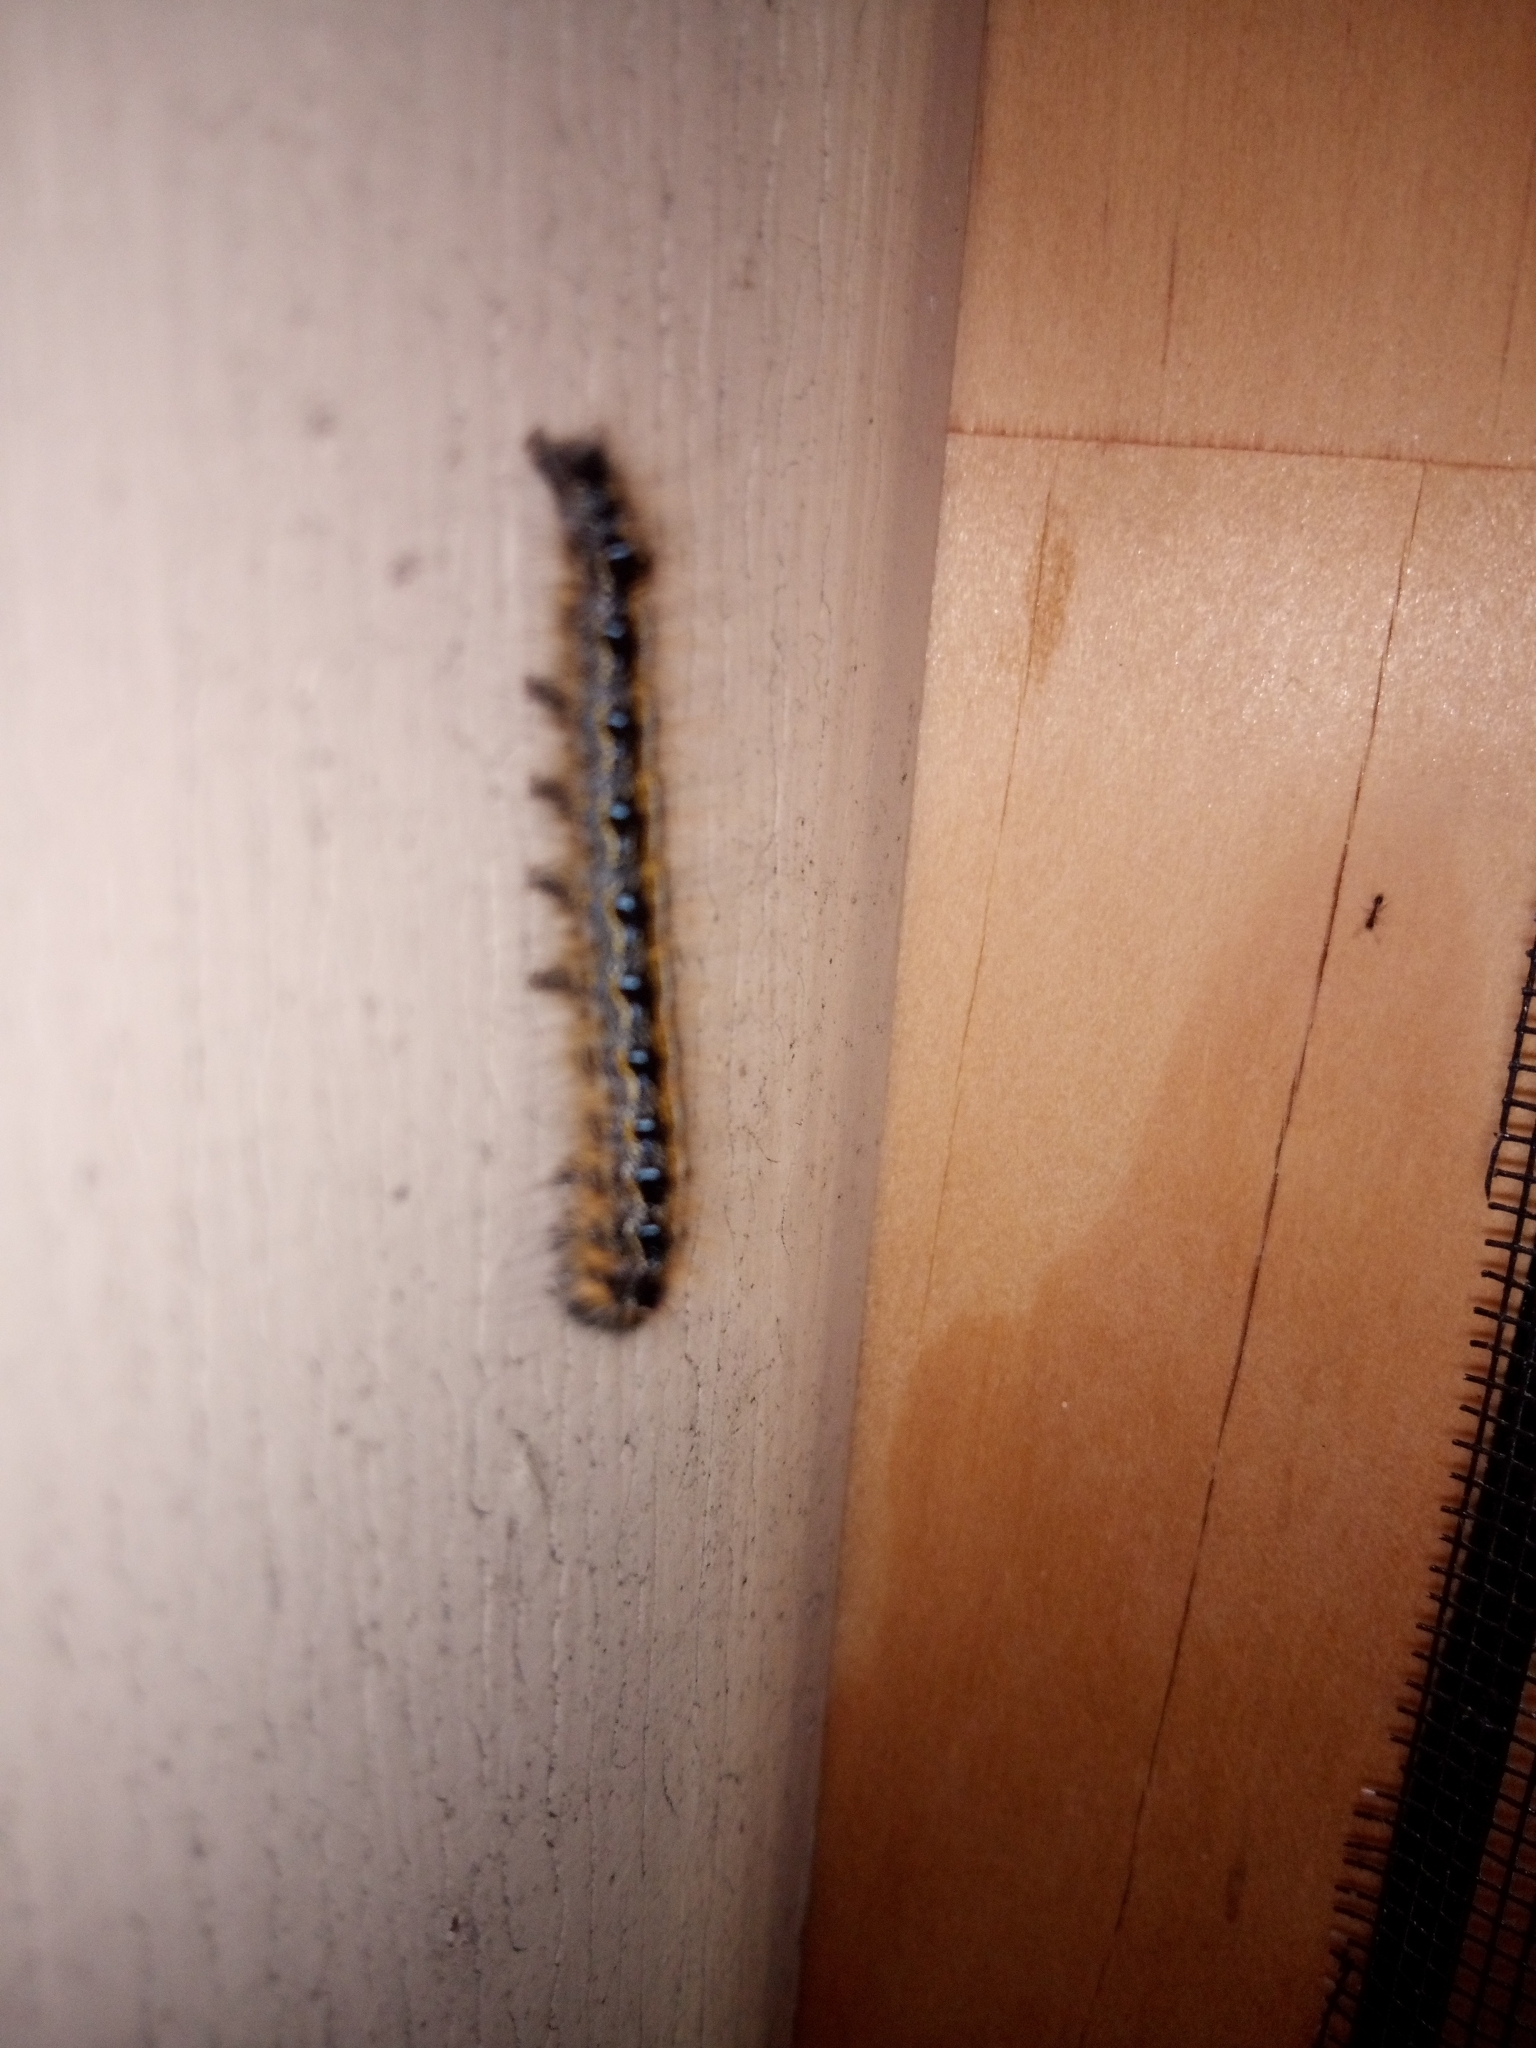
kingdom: Animalia
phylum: Arthropoda
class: Insecta
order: Lepidoptera
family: Lasiocampidae
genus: Malacosoma
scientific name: Malacosoma americana
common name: Eastern tent caterpillar moth
